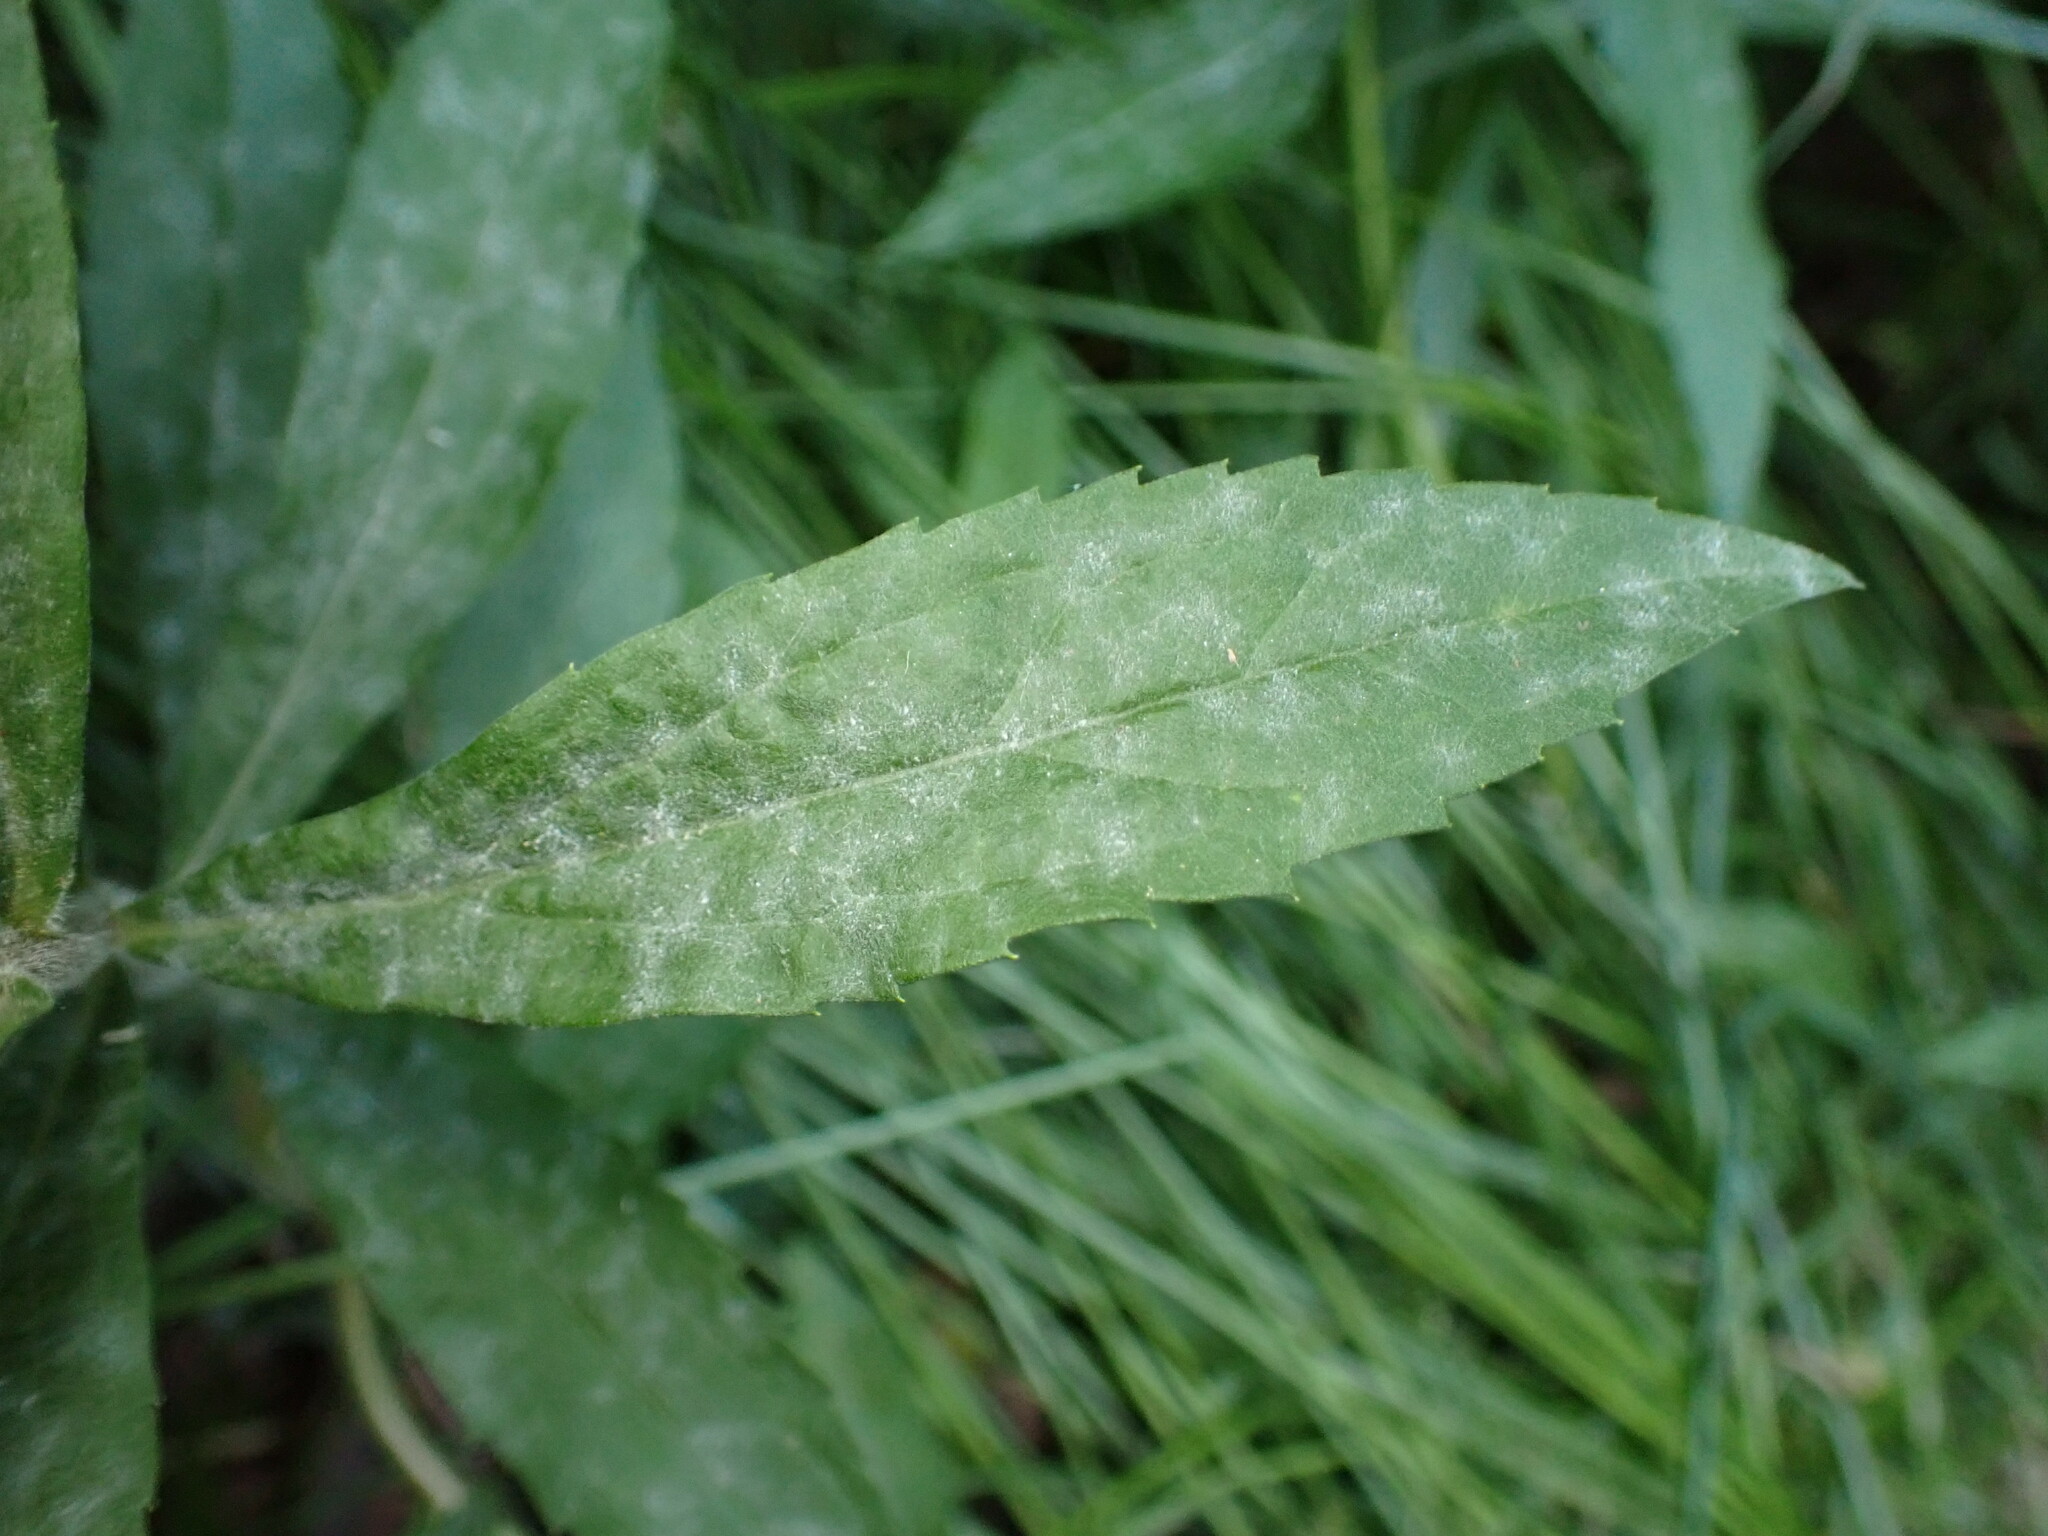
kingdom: Fungi
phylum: Ascomycota
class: Leotiomycetes
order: Helotiales
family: Erysiphaceae
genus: Golovinomyces
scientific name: Golovinomyces asterum
